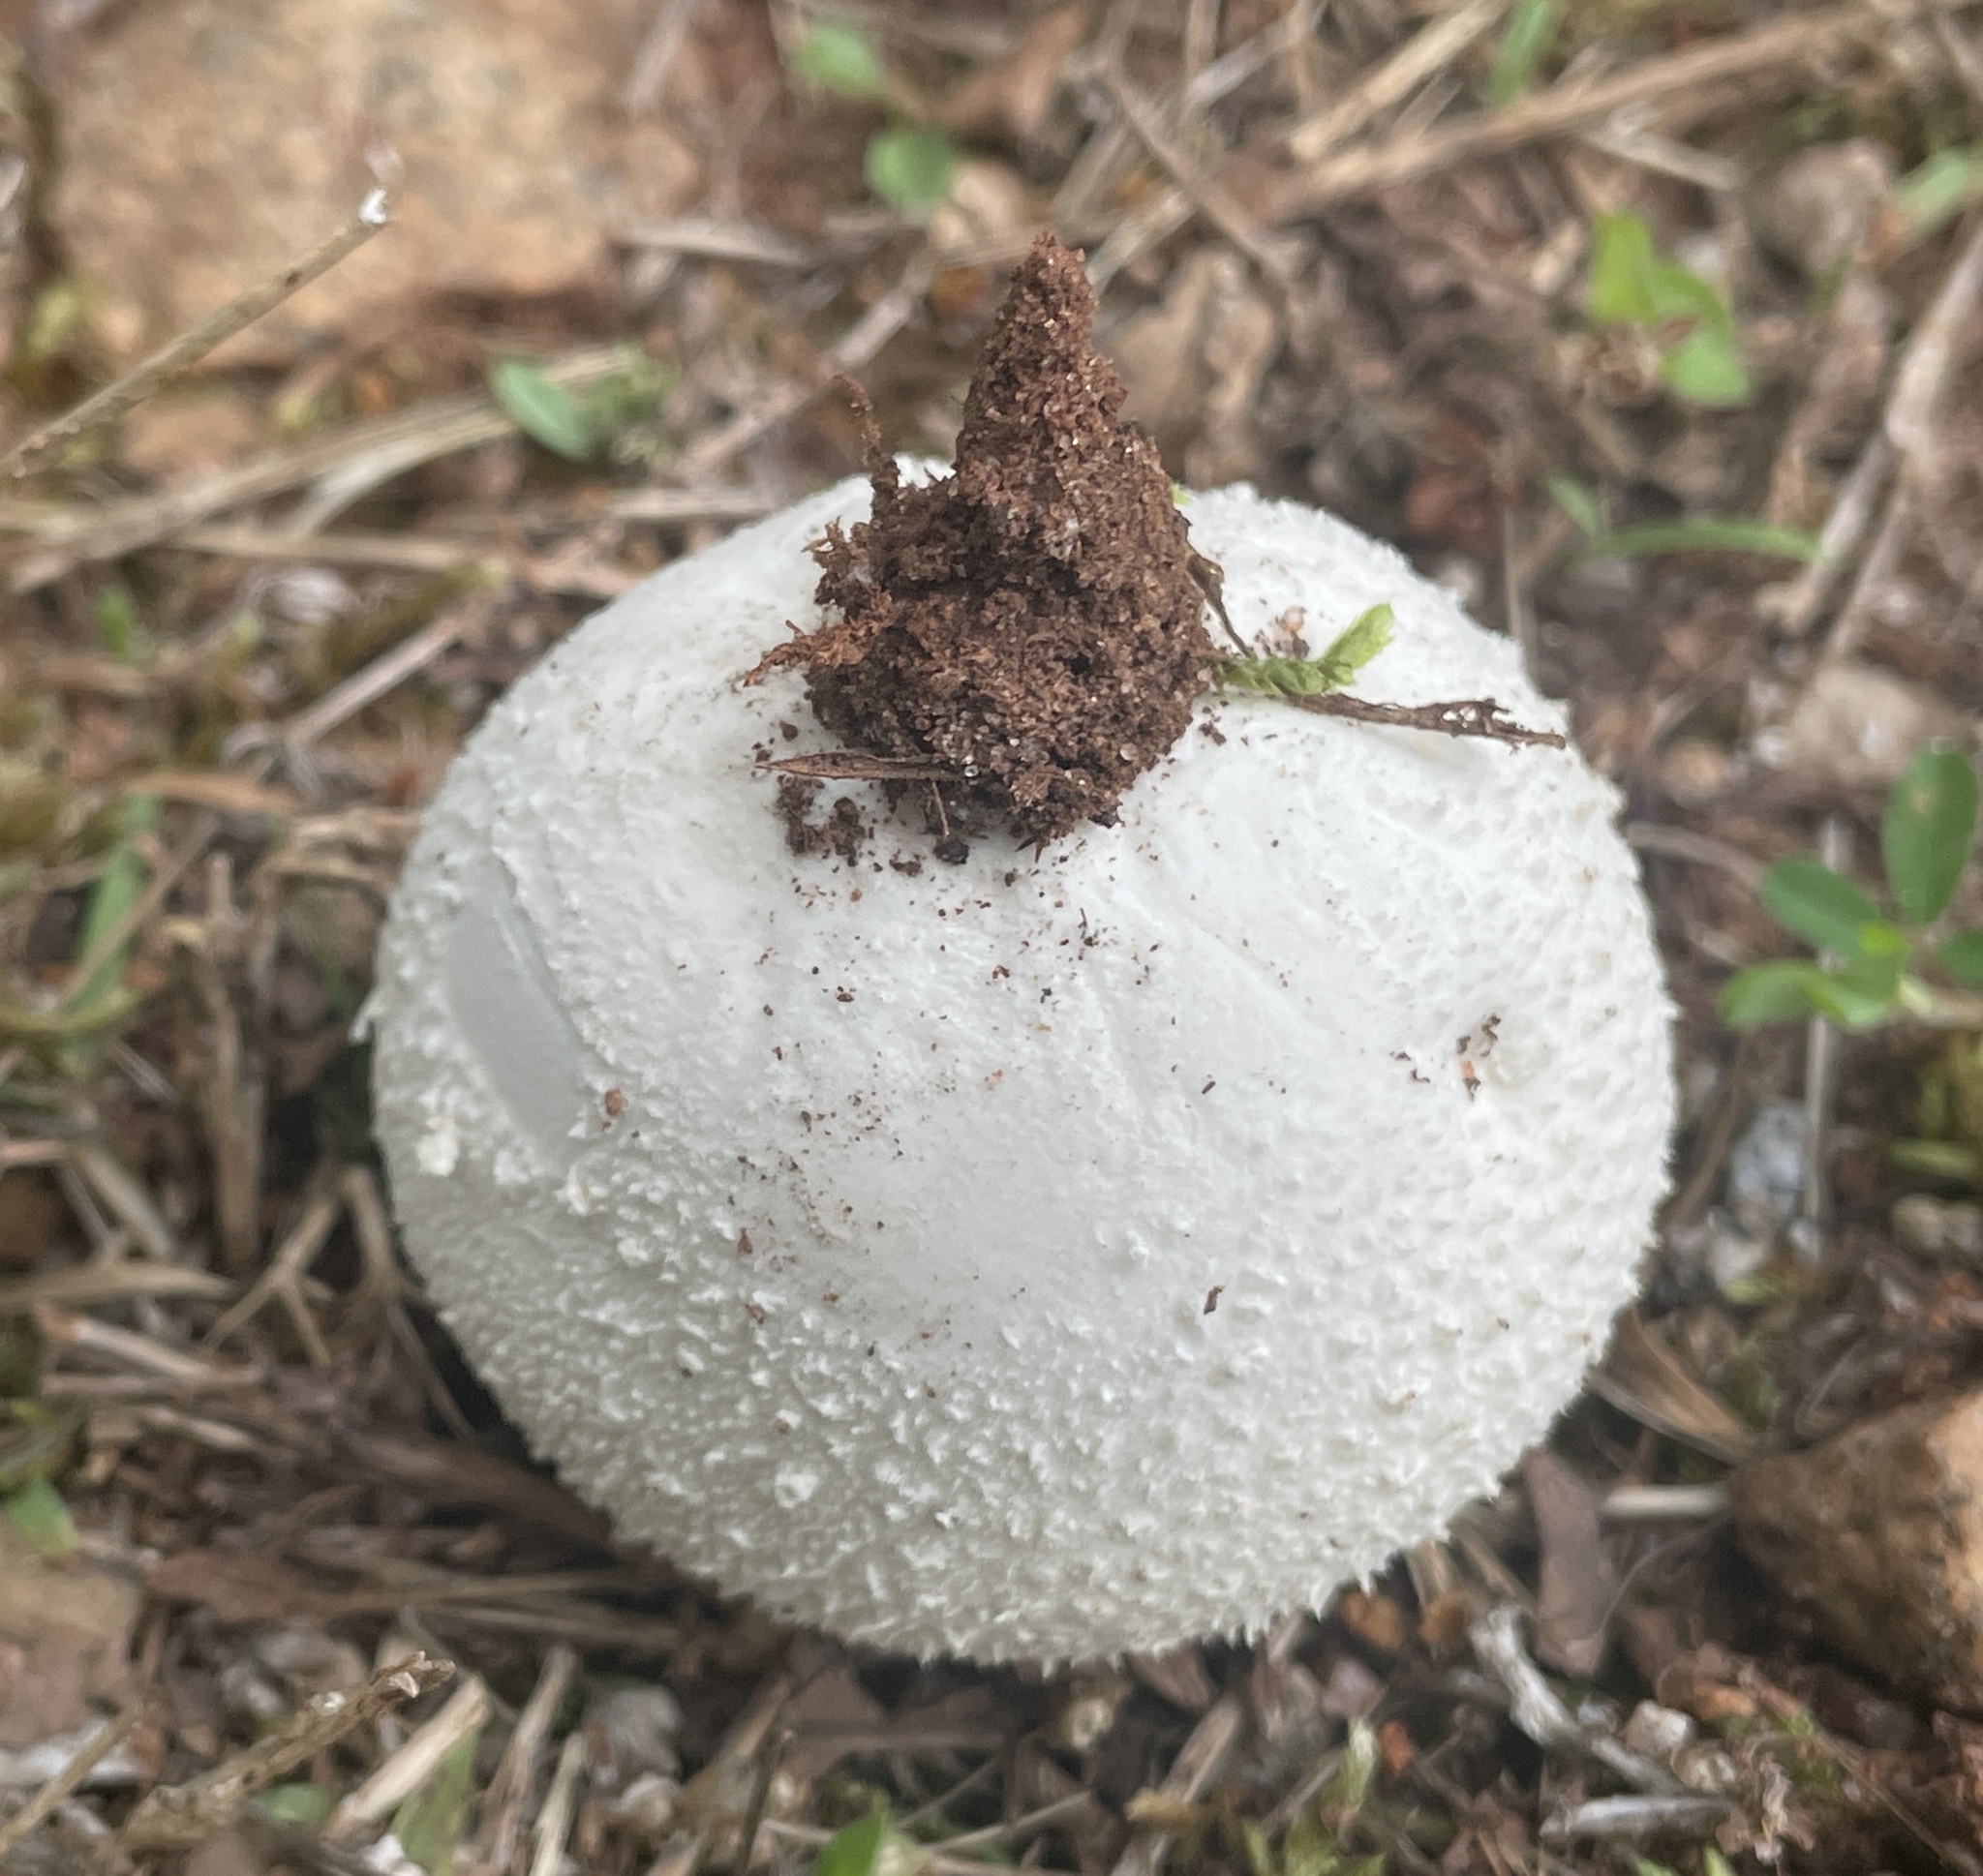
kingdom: Fungi
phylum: Basidiomycota
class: Agaricomycetes
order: Agaricales
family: Agaricaceae
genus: Lycoperdon
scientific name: Lycoperdon marginatum
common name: Peeling puffball
